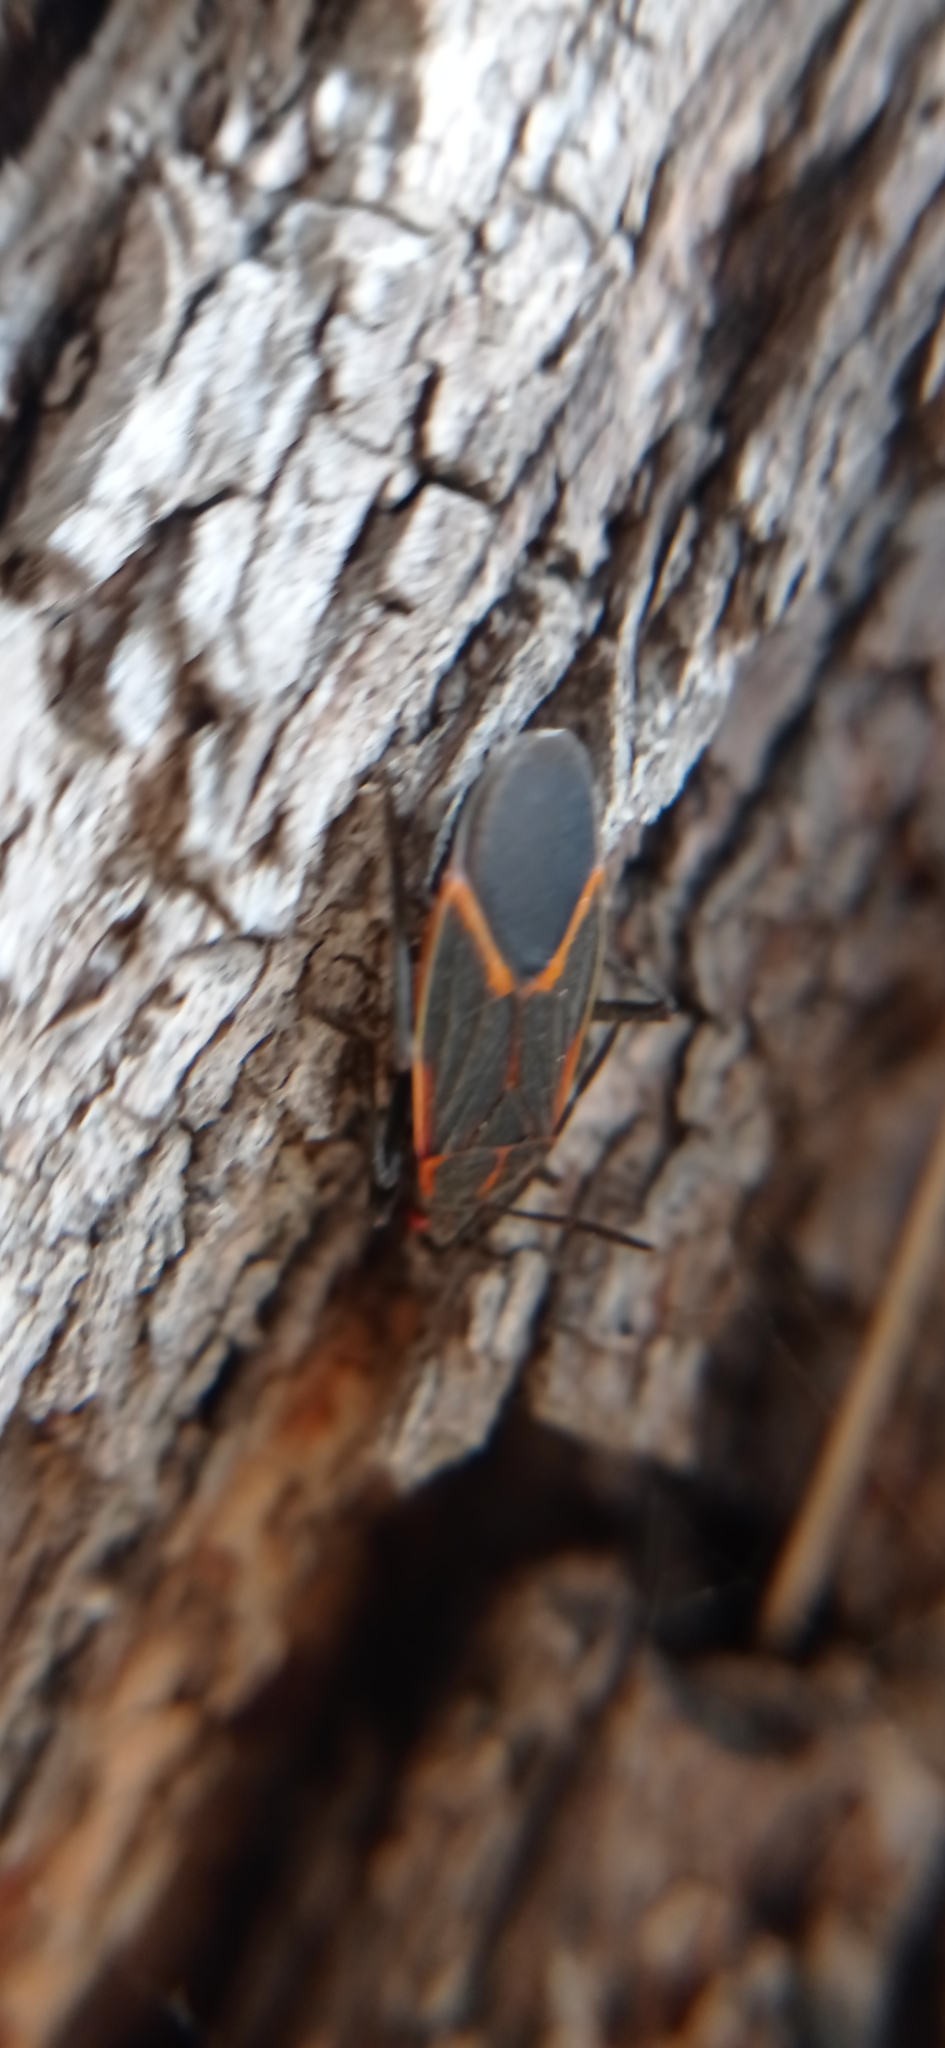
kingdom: Animalia
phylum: Arthropoda
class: Insecta
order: Hemiptera
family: Rhopalidae
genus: Boisea
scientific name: Boisea trivittata
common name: Boxelder bug
